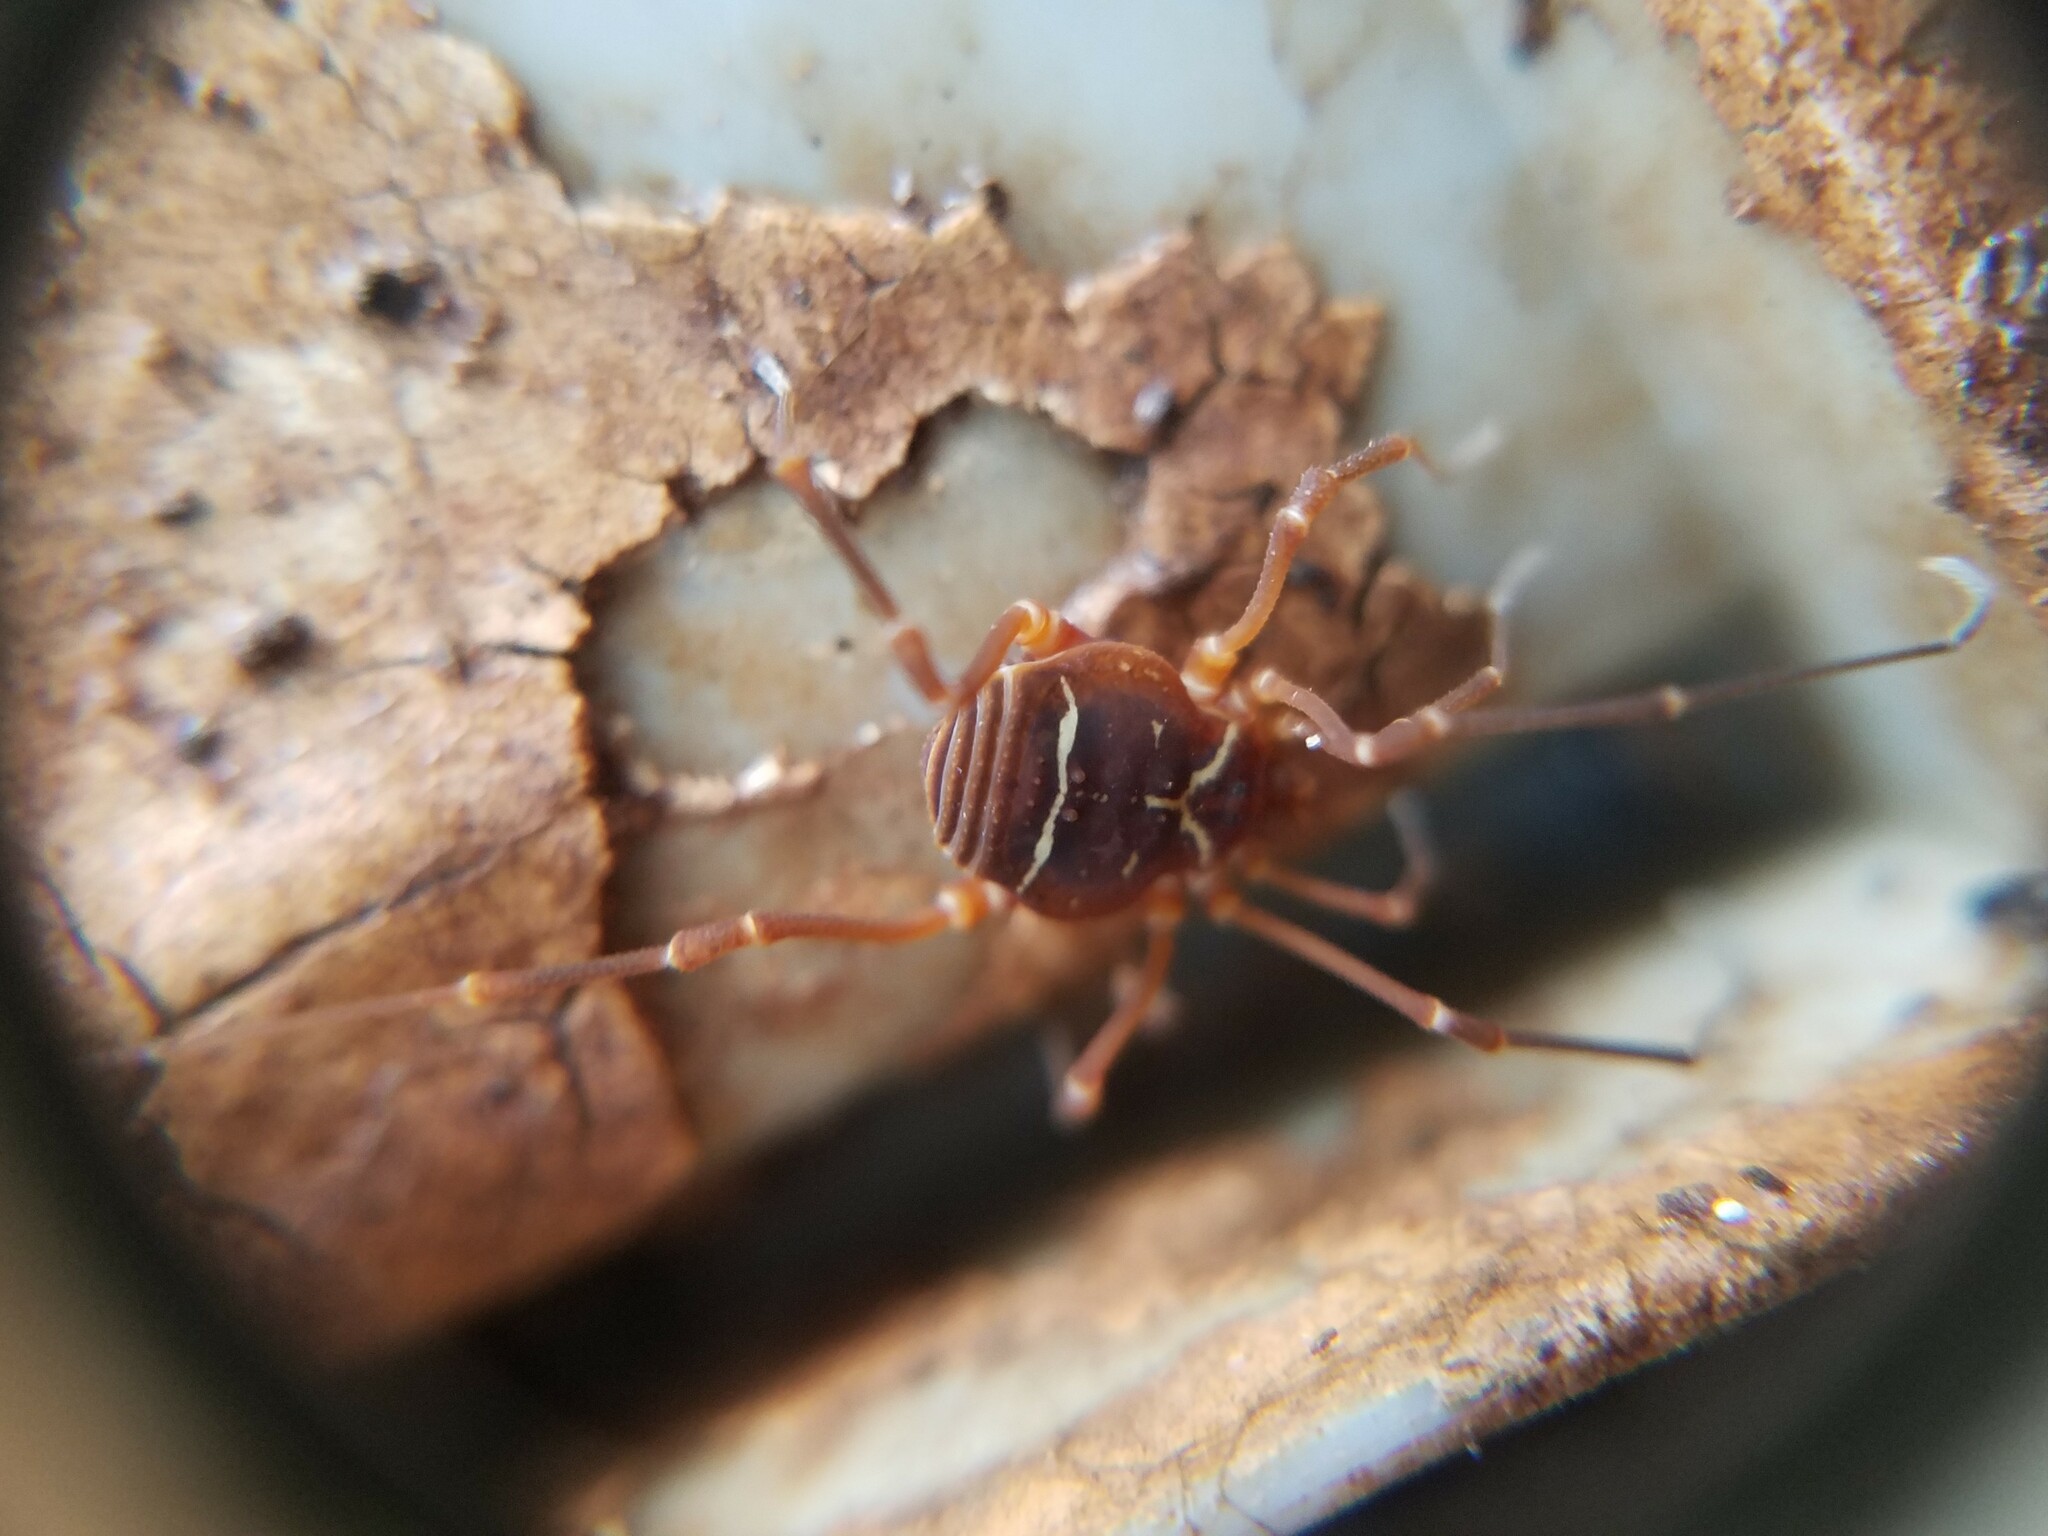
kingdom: Animalia
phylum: Arthropoda
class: Arachnida
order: Opiliones
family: Cosmetidae
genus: Libitioides
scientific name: Libitioides sayi
